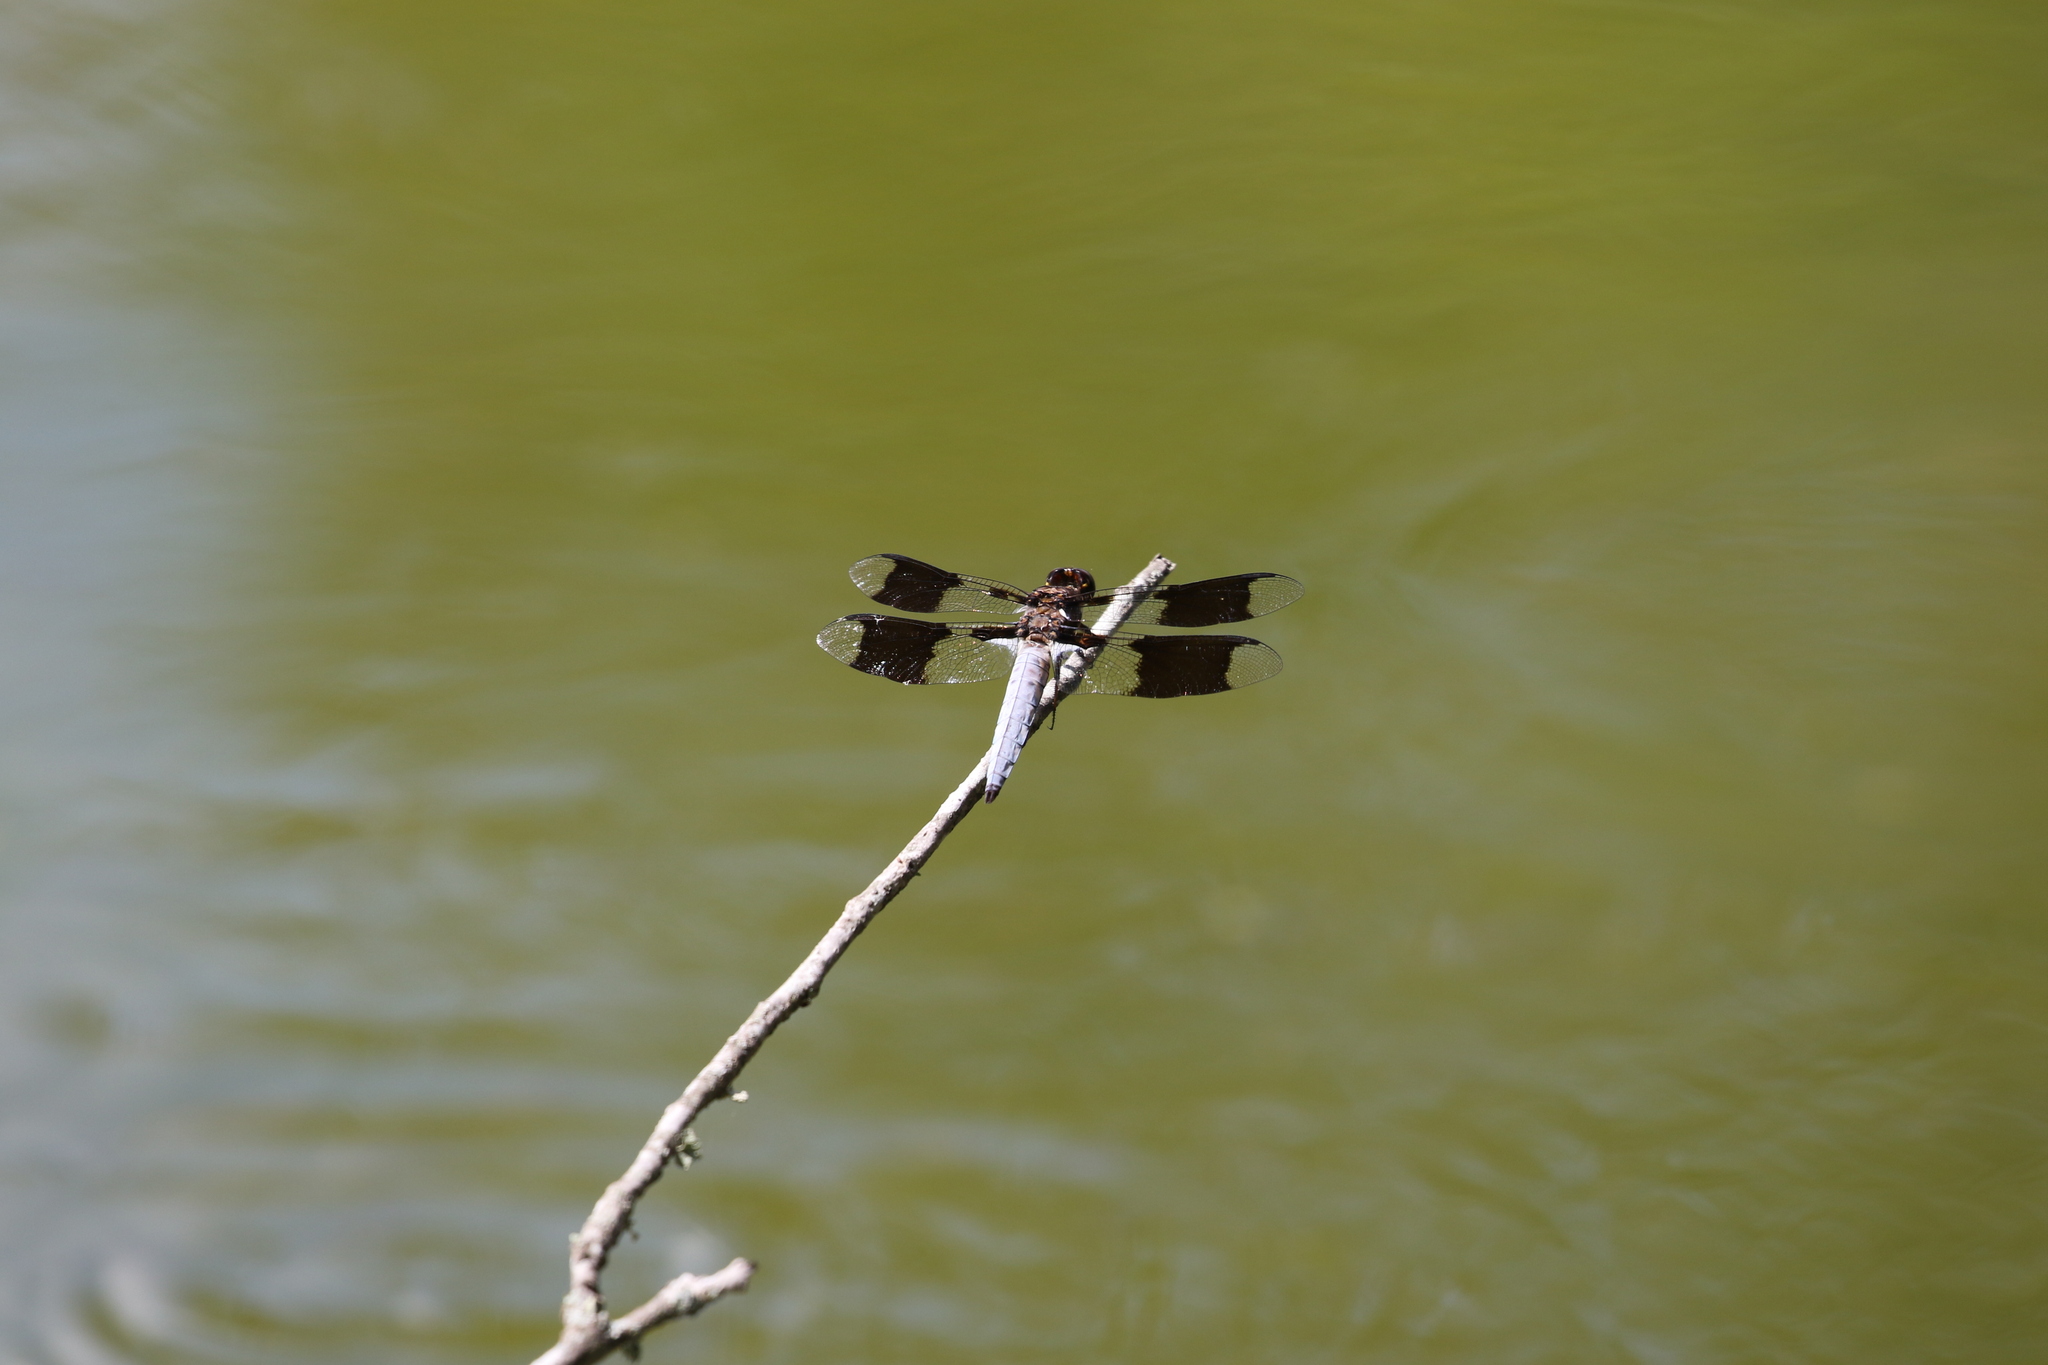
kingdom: Animalia
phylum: Arthropoda
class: Insecta
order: Odonata
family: Libellulidae
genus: Plathemis
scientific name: Plathemis lydia
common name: Common whitetail
